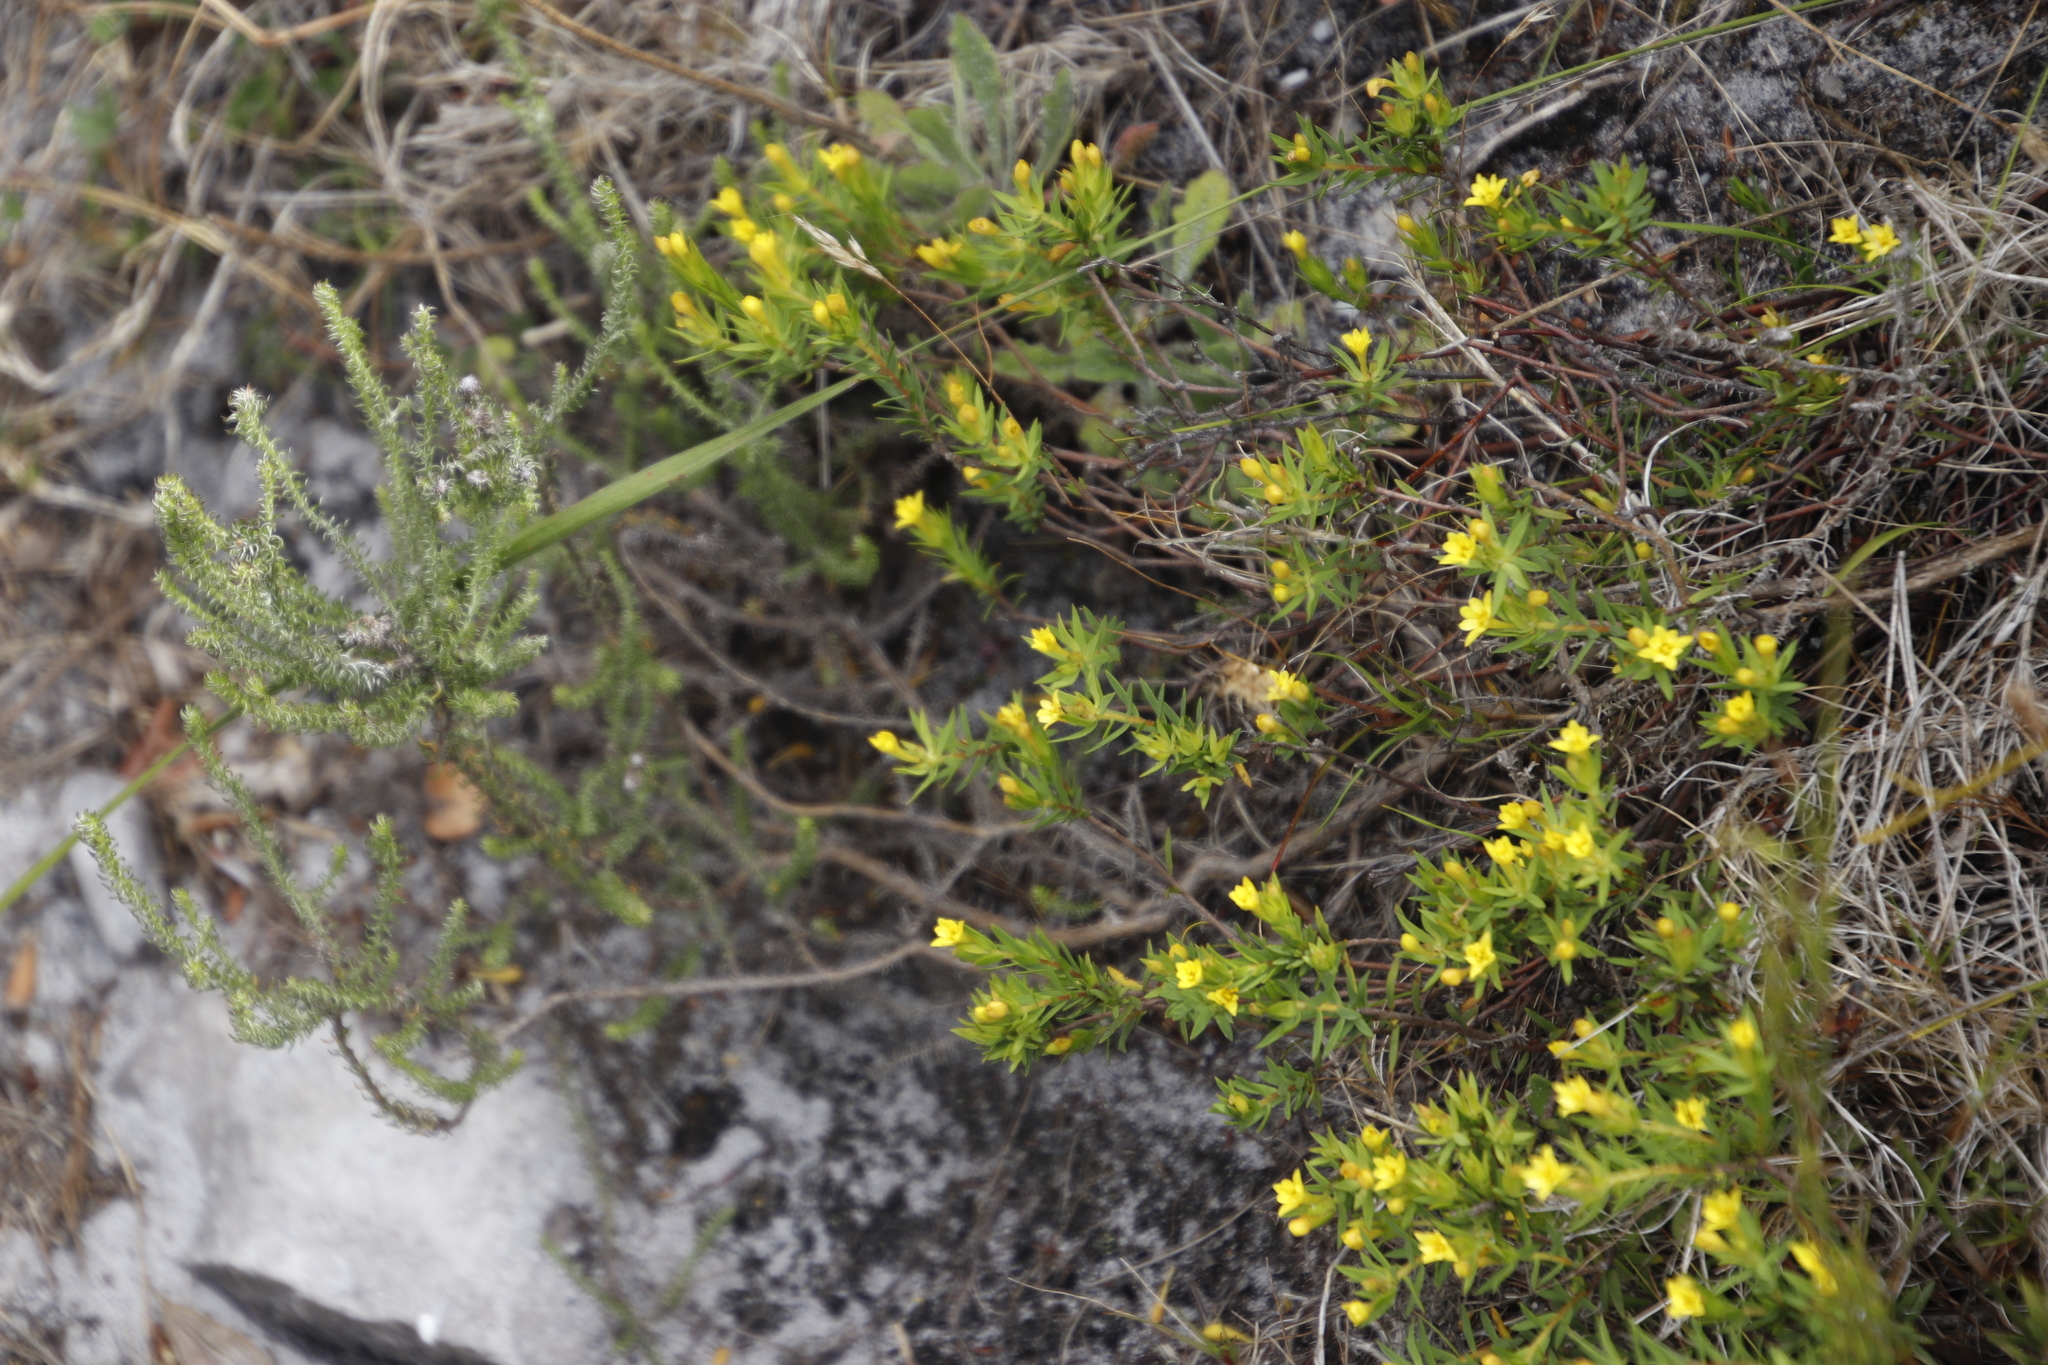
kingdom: Plantae
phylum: Tracheophyta
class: Magnoliopsida
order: Malvales
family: Thymelaeaceae
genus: Gnidia
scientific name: Gnidia juniperifolia
